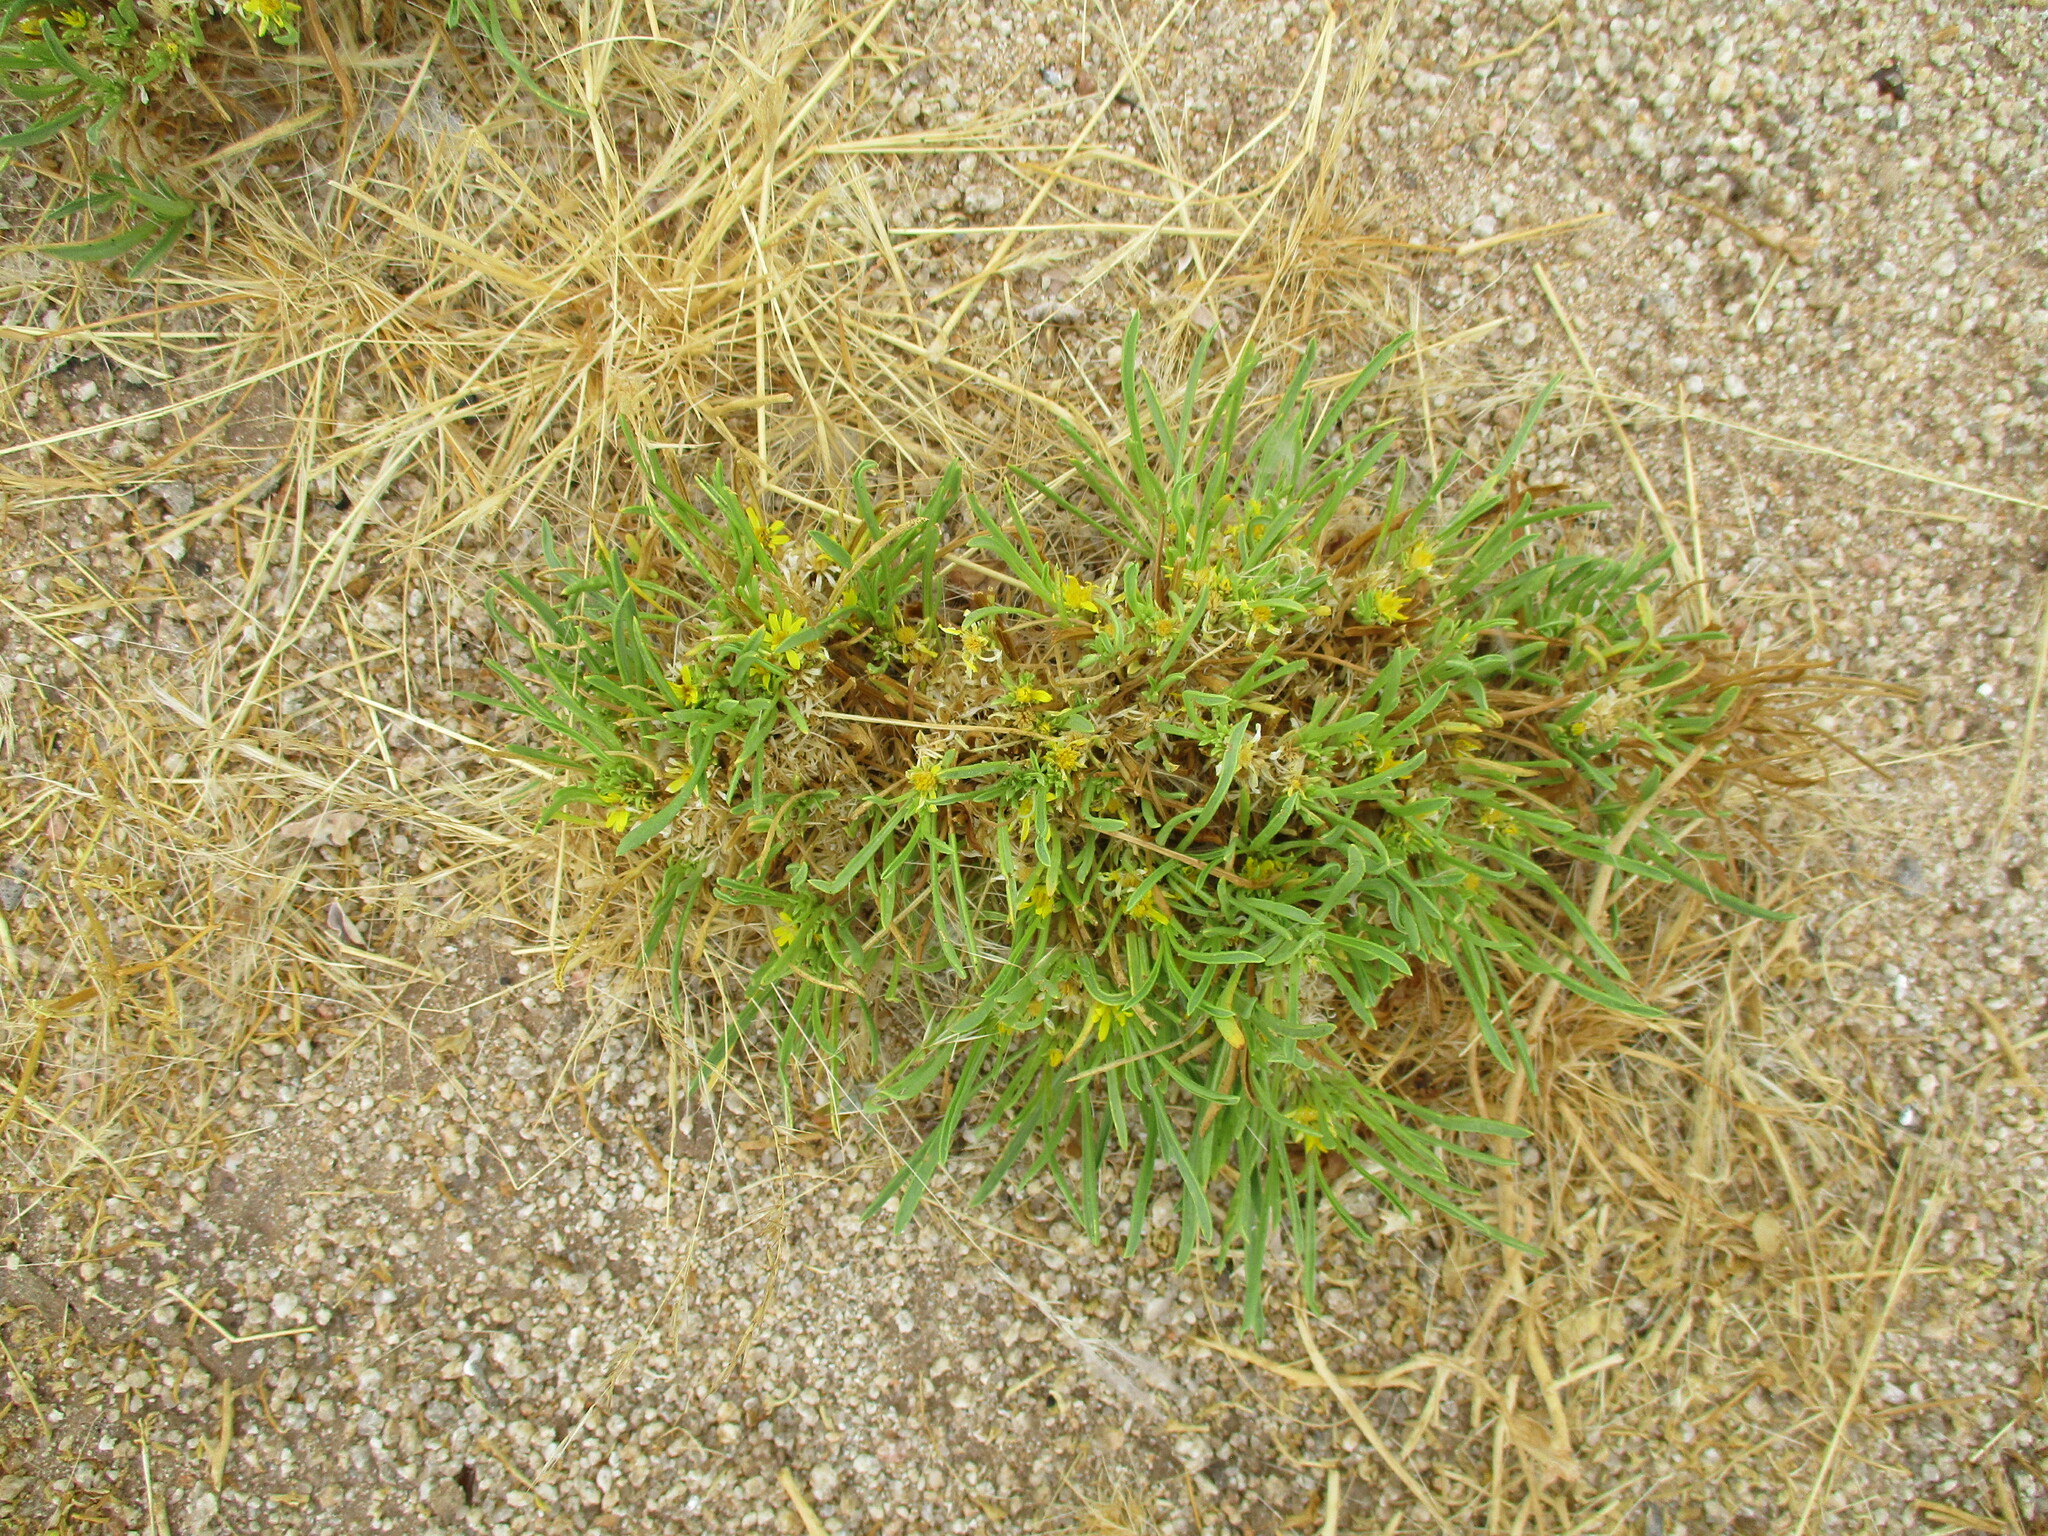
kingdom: Plantae
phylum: Tracheophyta
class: Magnoliopsida
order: Asterales
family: Asteraceae
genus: Geigeria
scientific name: Geigeria ornativa
